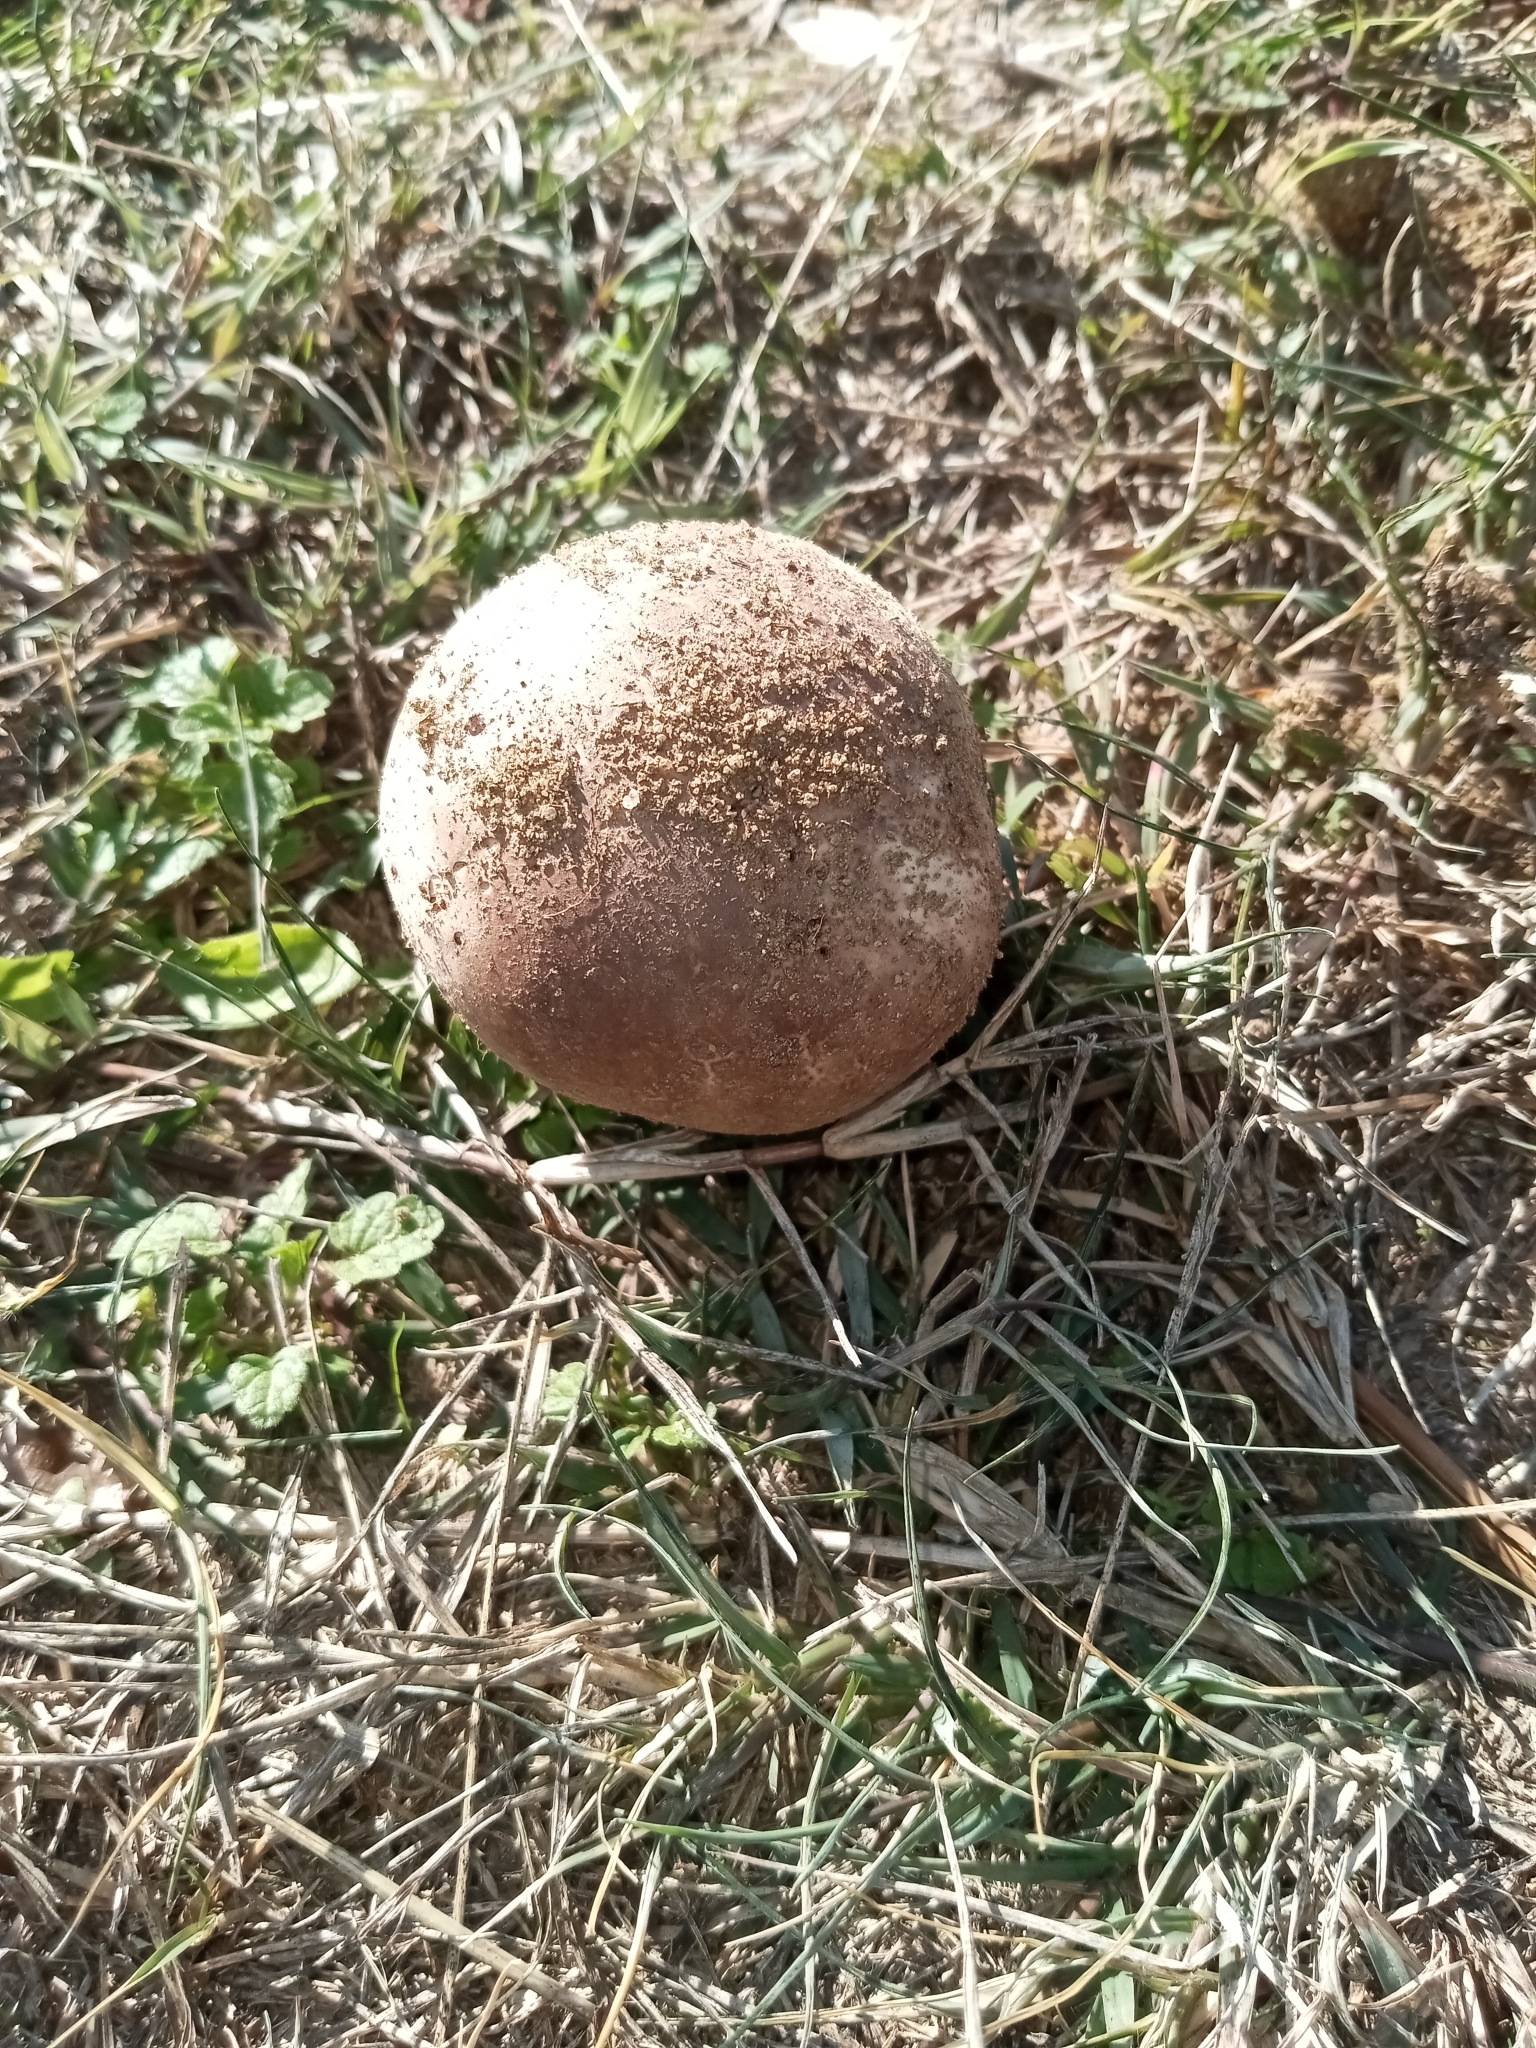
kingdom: Fungi
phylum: Basidiomycota
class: Agaricomycetes
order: Agaricales
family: Lycoperdaceae
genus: Calvatia
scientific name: Calvatia cyathiformis
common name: Purple-spored puffball
